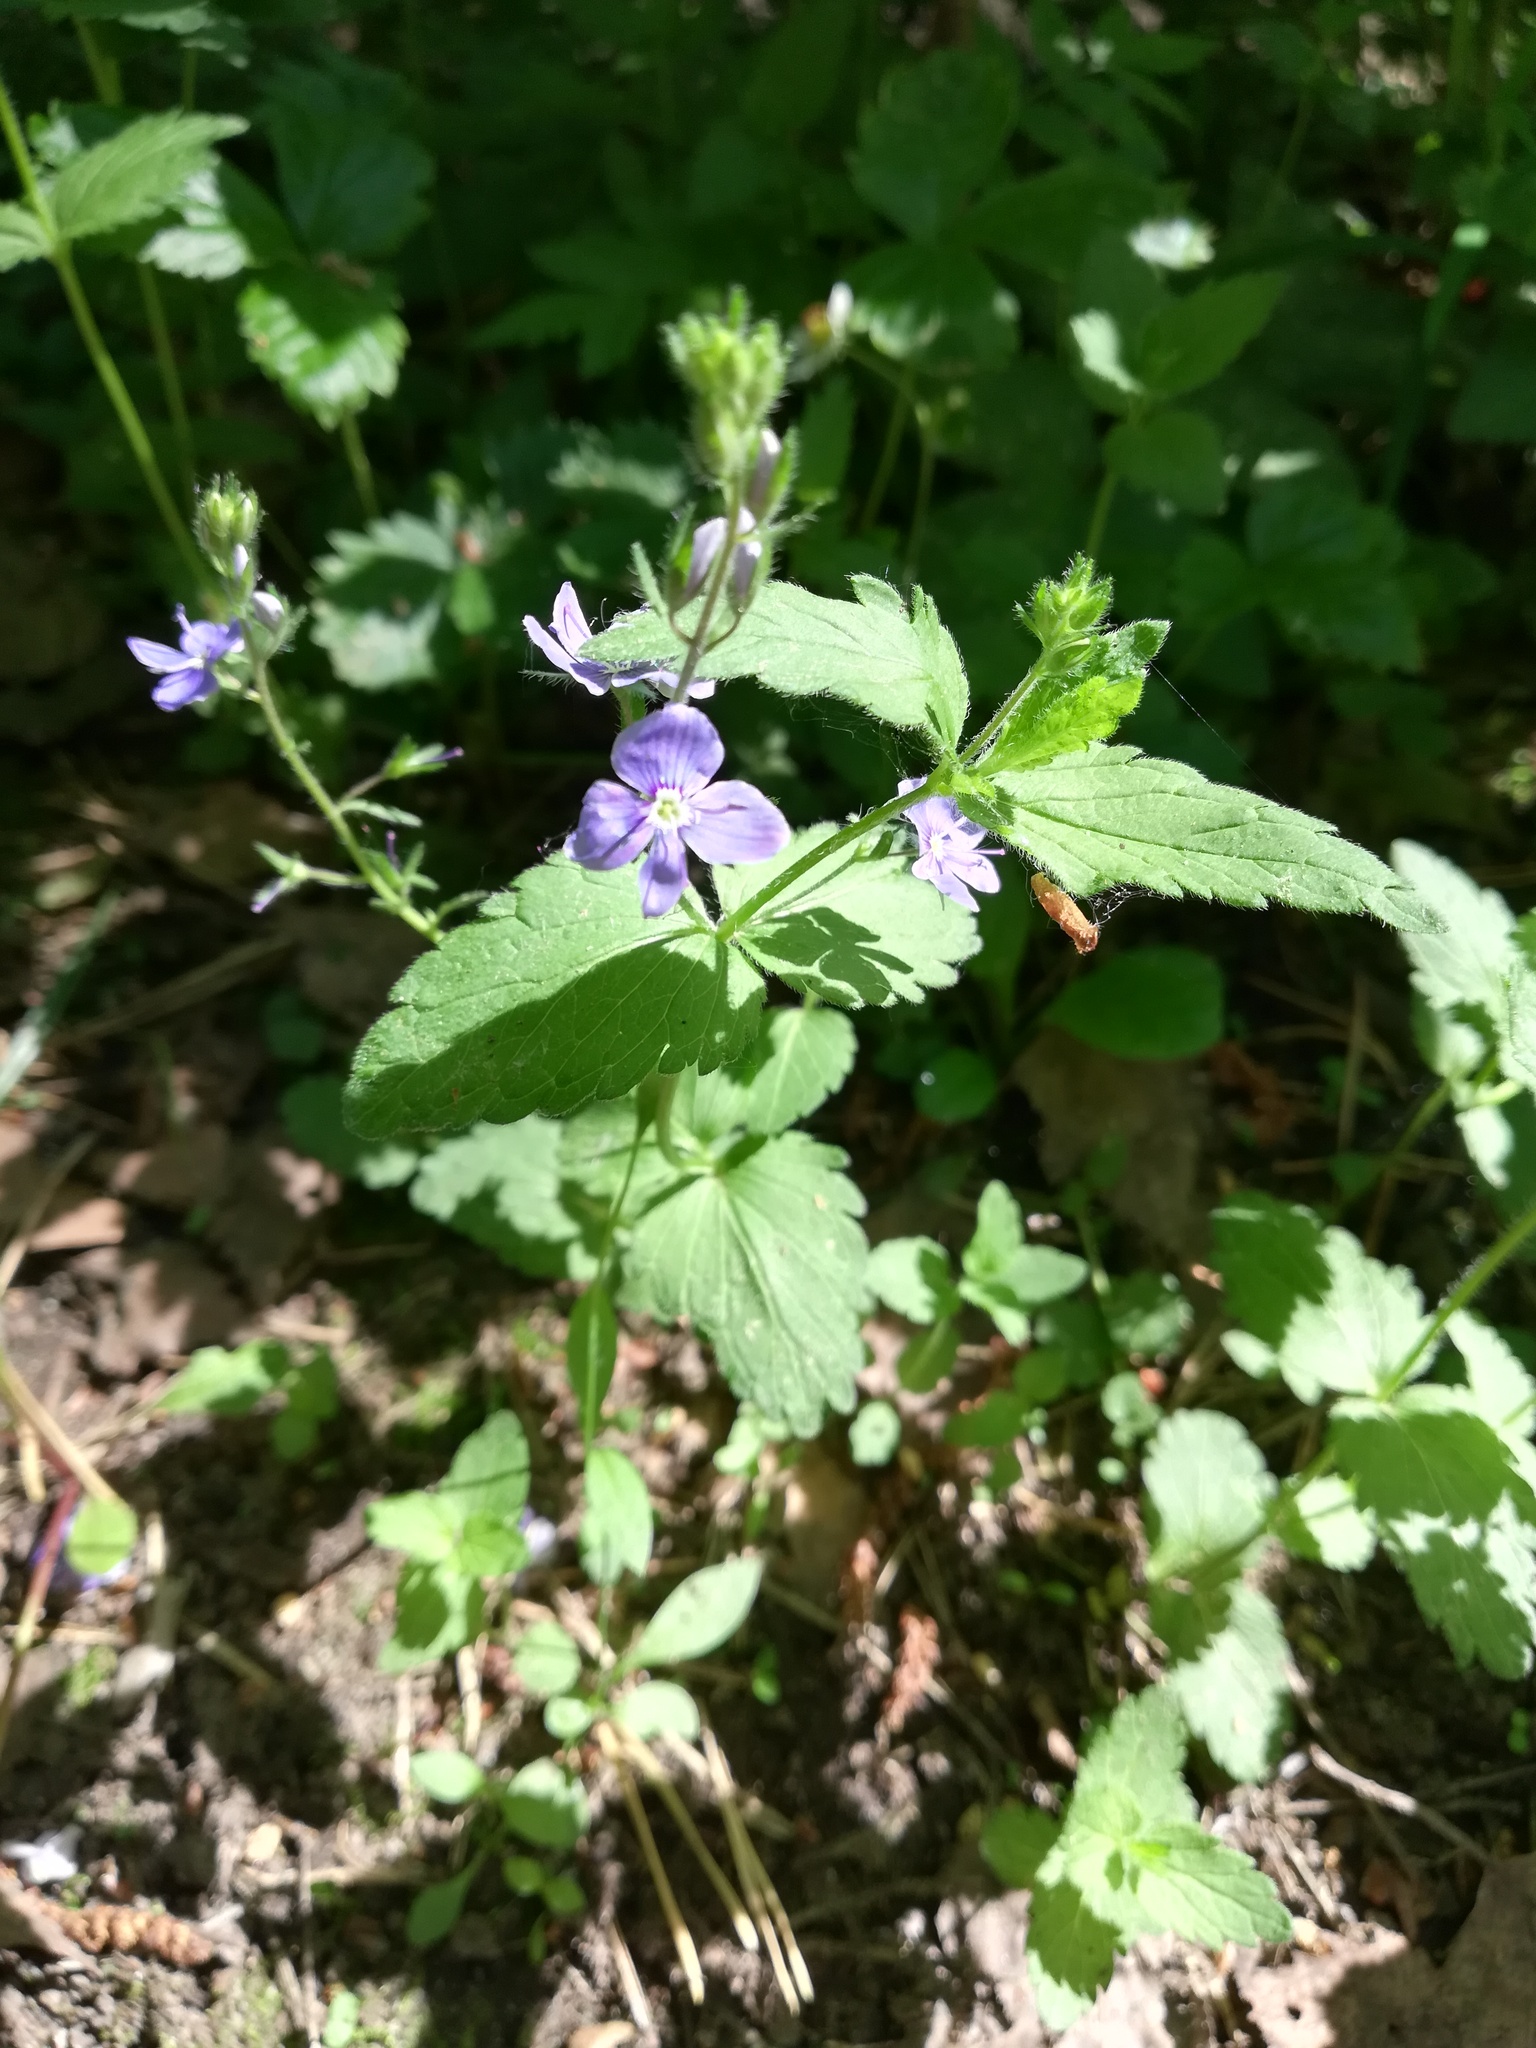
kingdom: Plantae
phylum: Tracheophyta
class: Magnoliopsida
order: Lamiales
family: Plantaginaceae
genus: Veronica
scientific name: Veronica chamaedrys
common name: Germander speedwell
